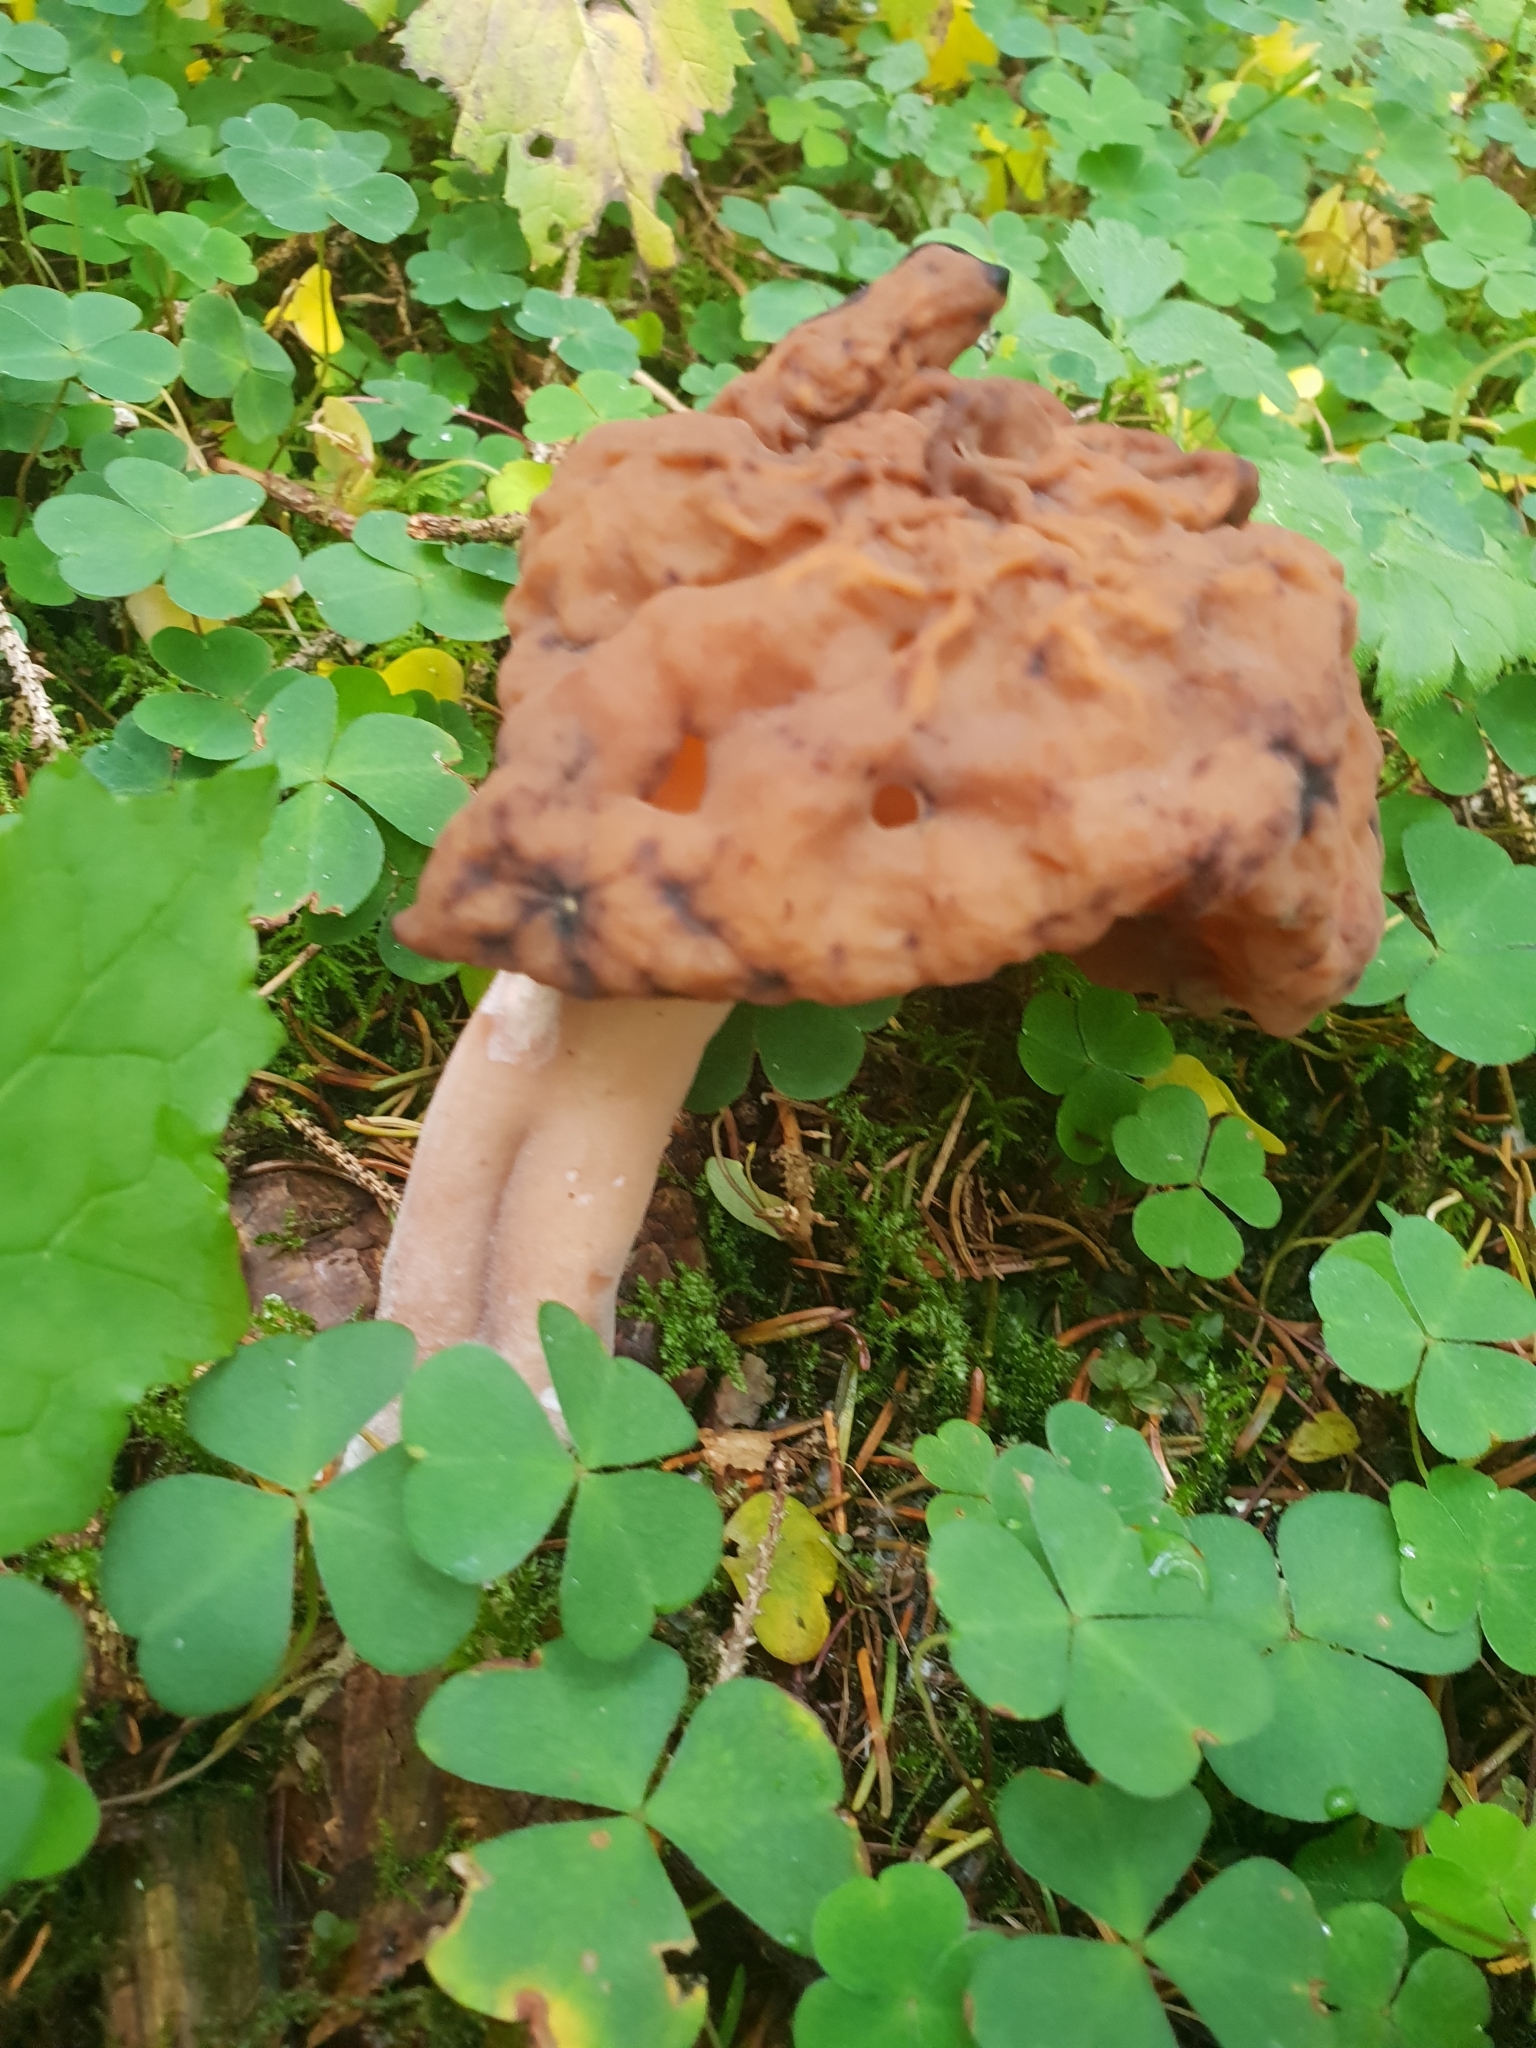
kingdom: Fungi
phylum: Ascomycota
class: Pezizomycetes
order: Pezizales
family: Discinaceae
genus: Gyromitra
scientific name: Gyromitra infula
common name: Pouched false morel
